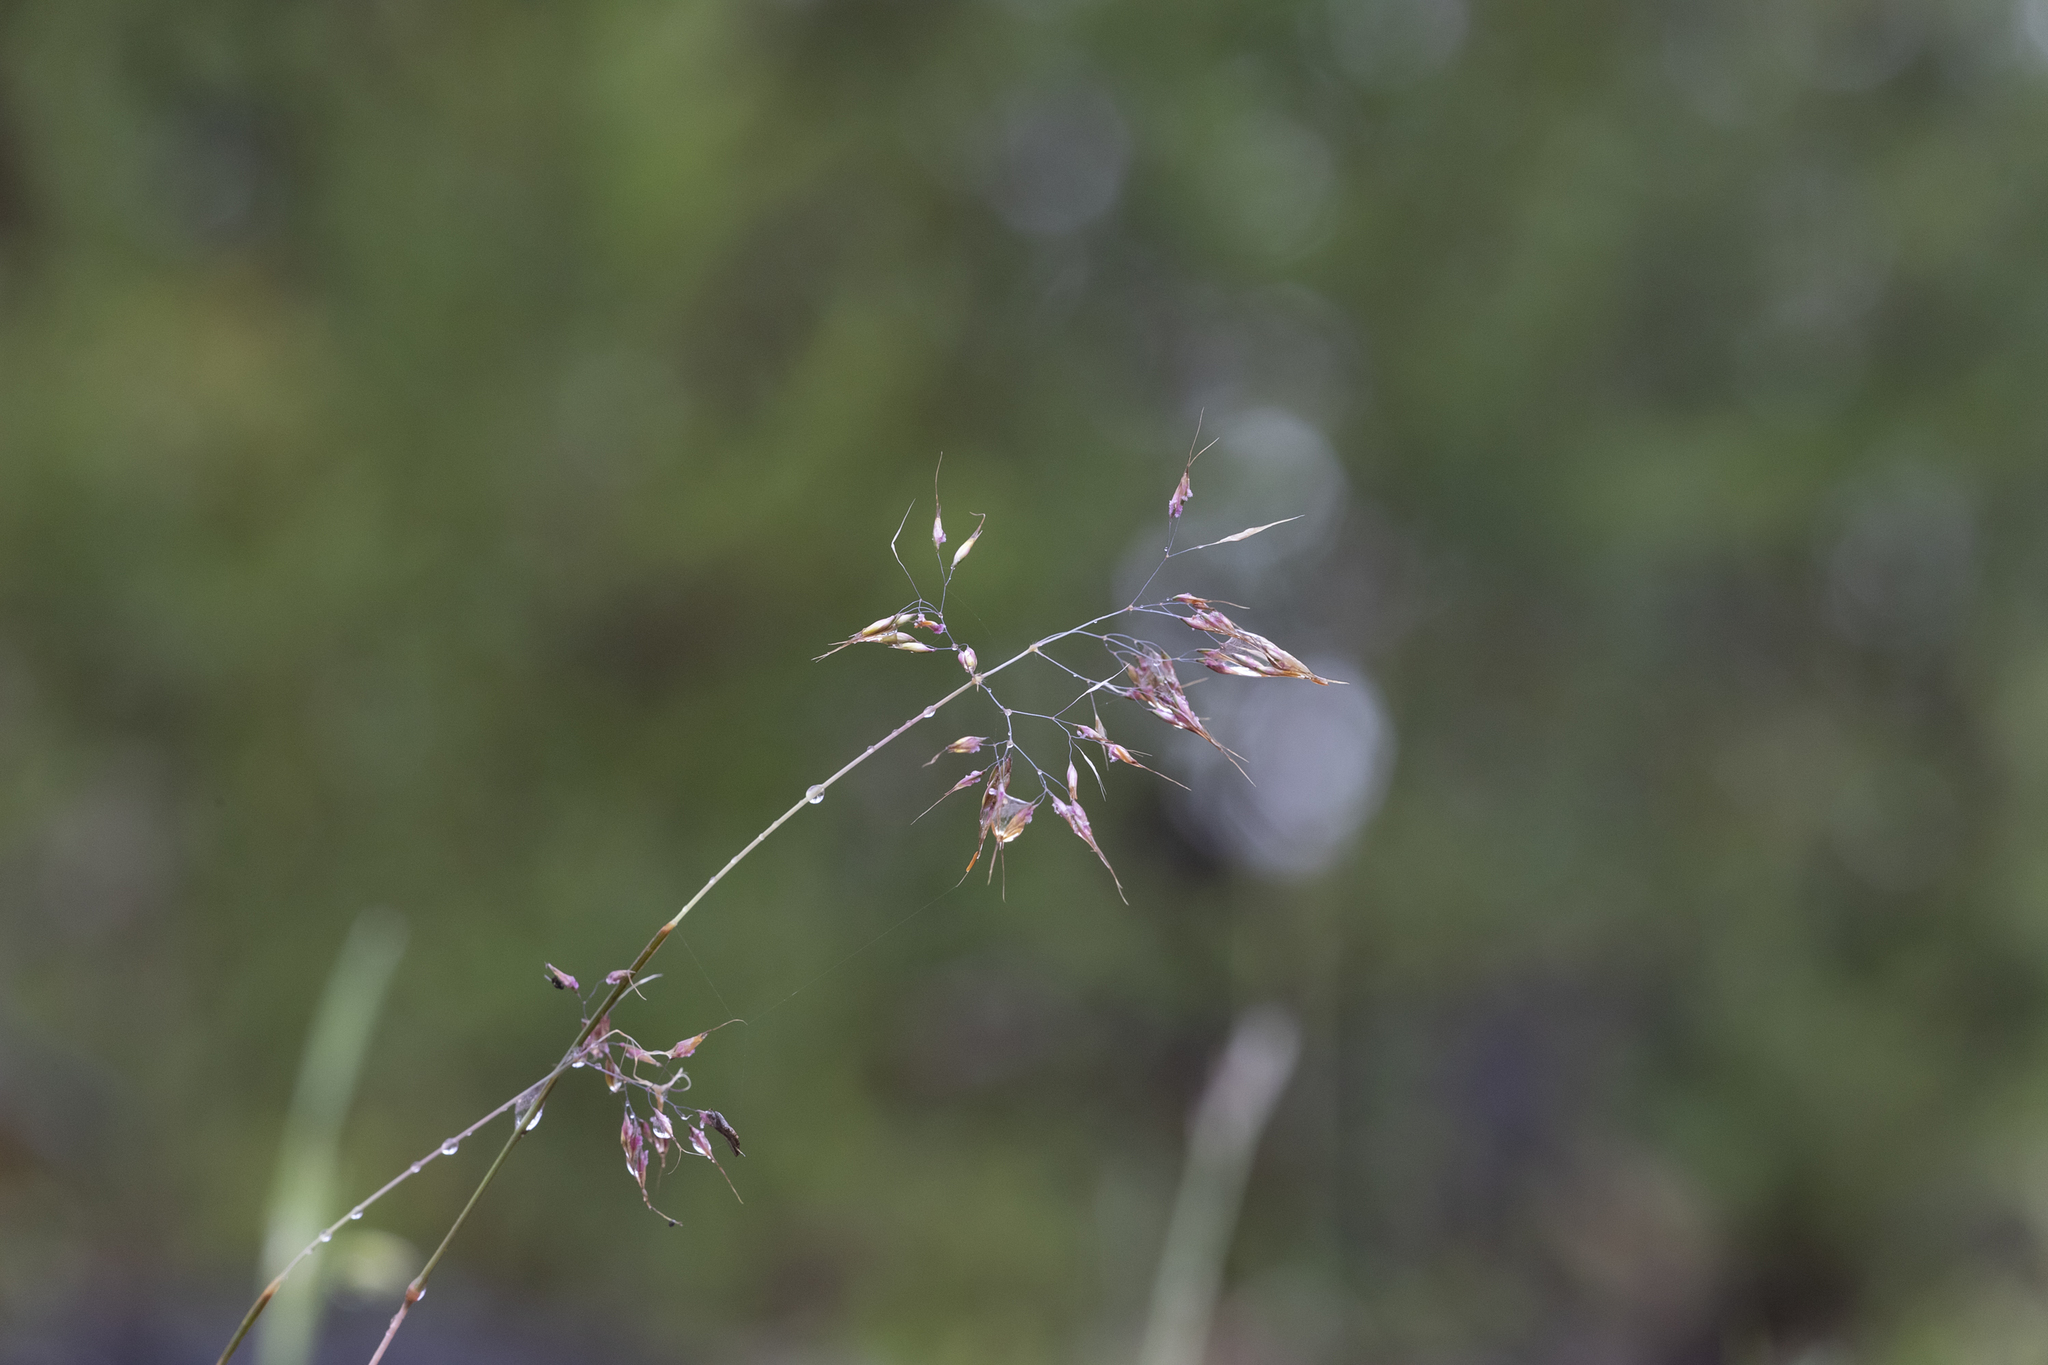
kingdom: Plantae
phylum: Tracheophyta
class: Liliopsida
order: Poales
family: Poaceae
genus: Pentameris
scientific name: Pentameris pallida
